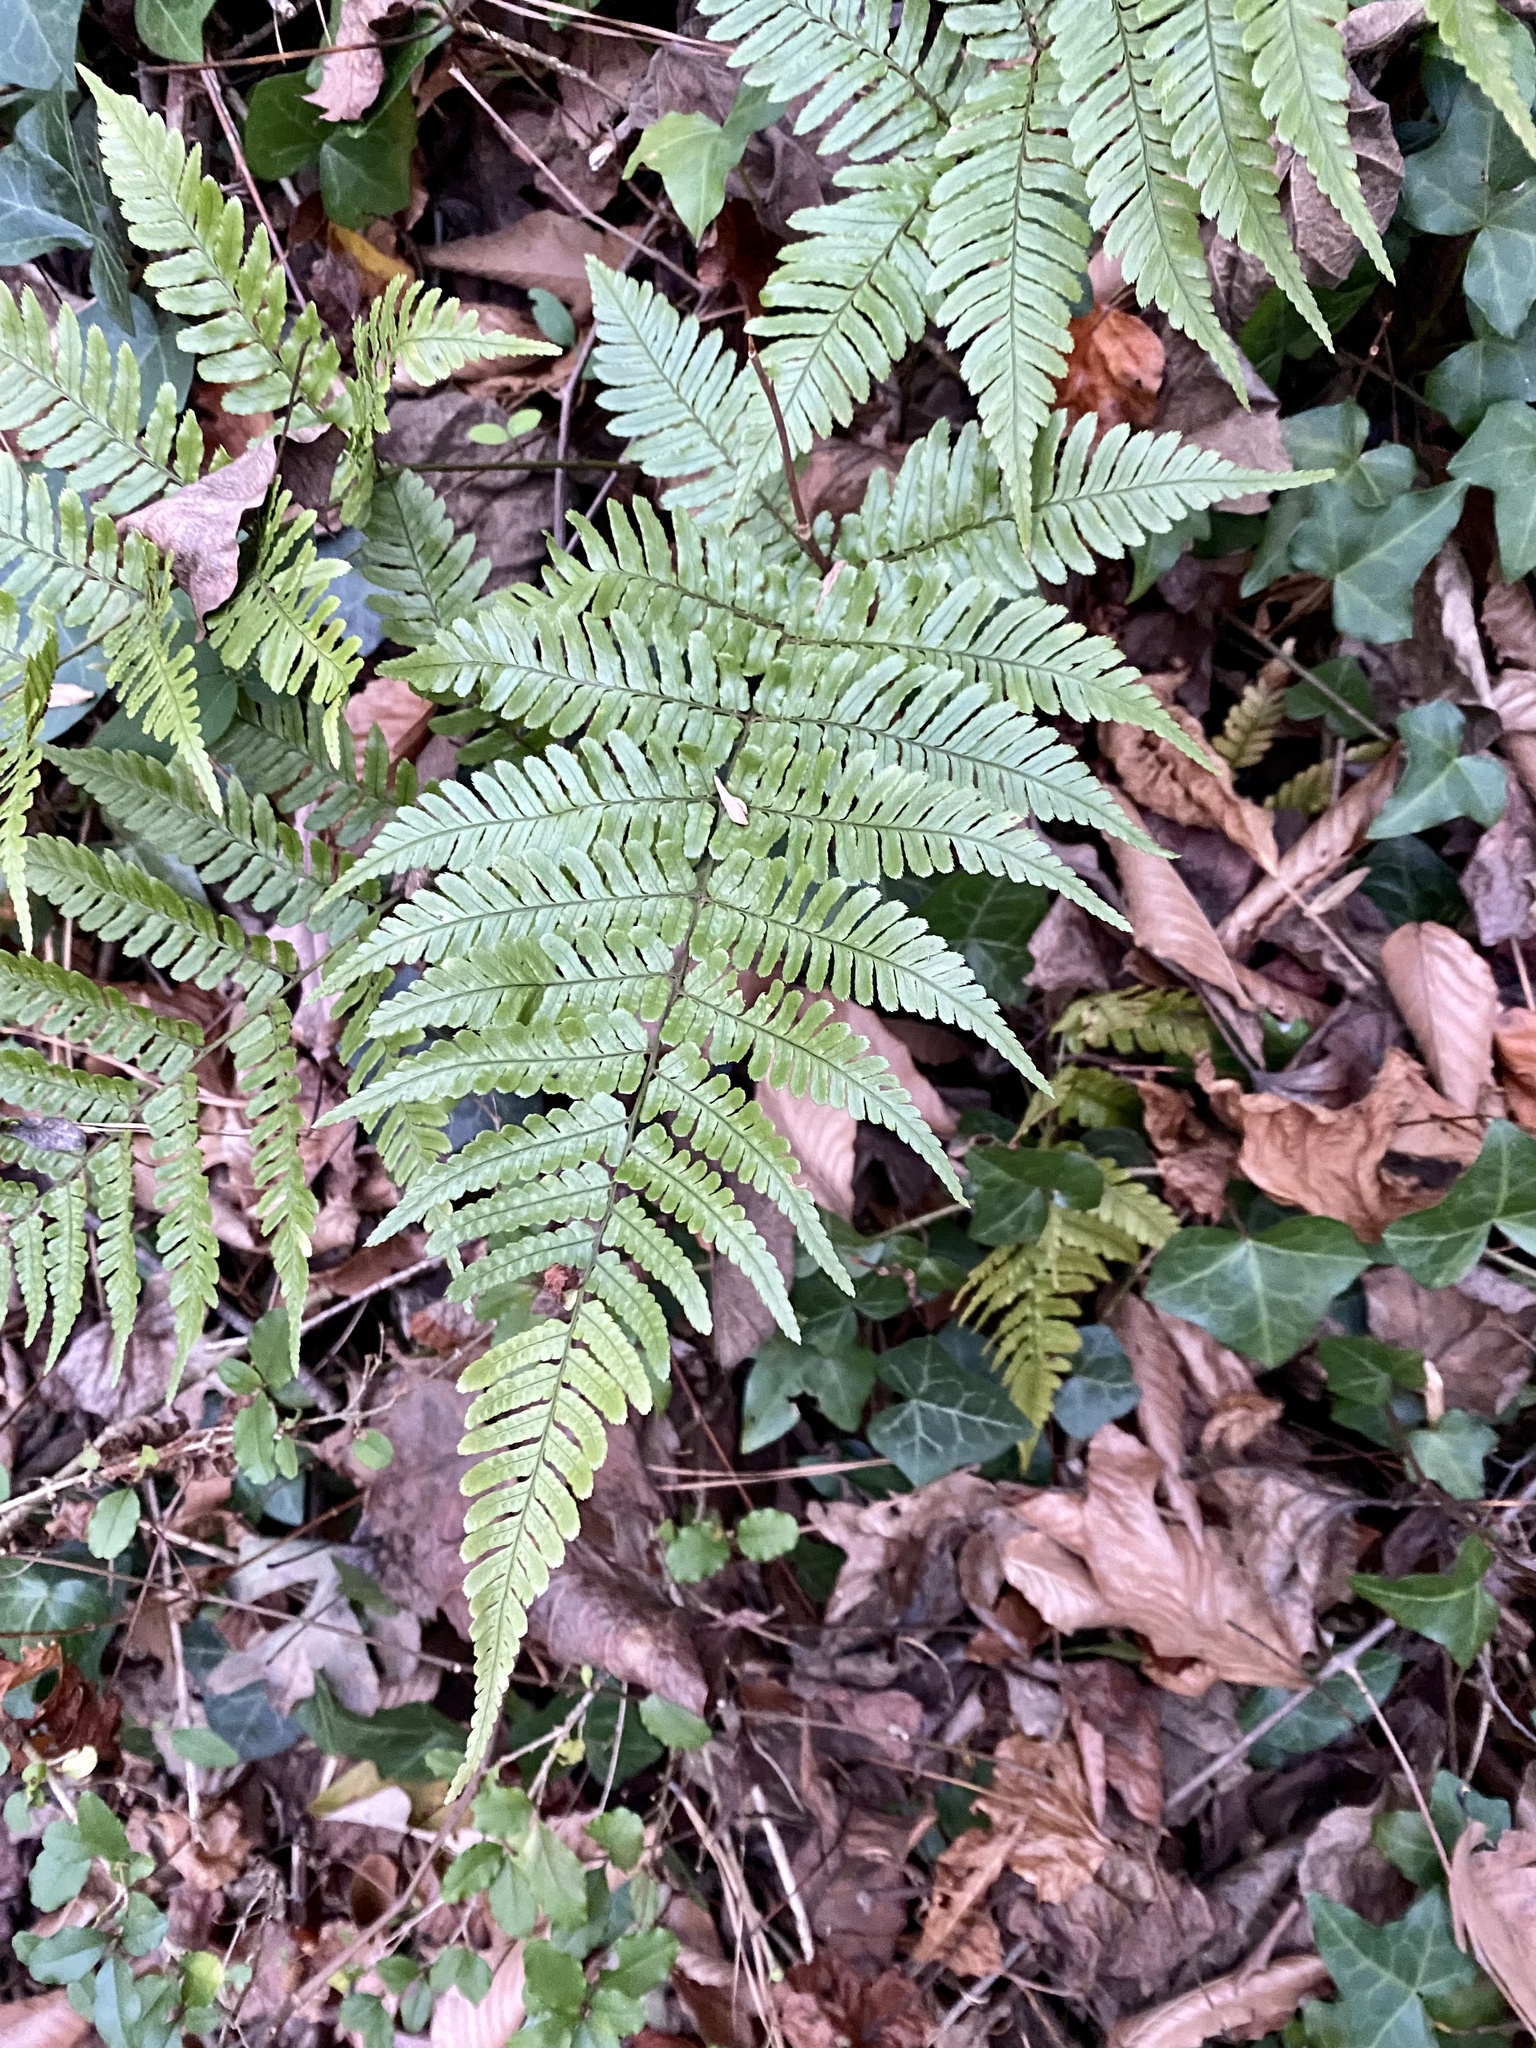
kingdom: Plantae
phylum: Tracheophyta
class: Polypodiopsida
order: Polypodiales
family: Dryopteridaceae
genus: Dryopteris
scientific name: Dryopteris erythrosora
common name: Autumn fern
